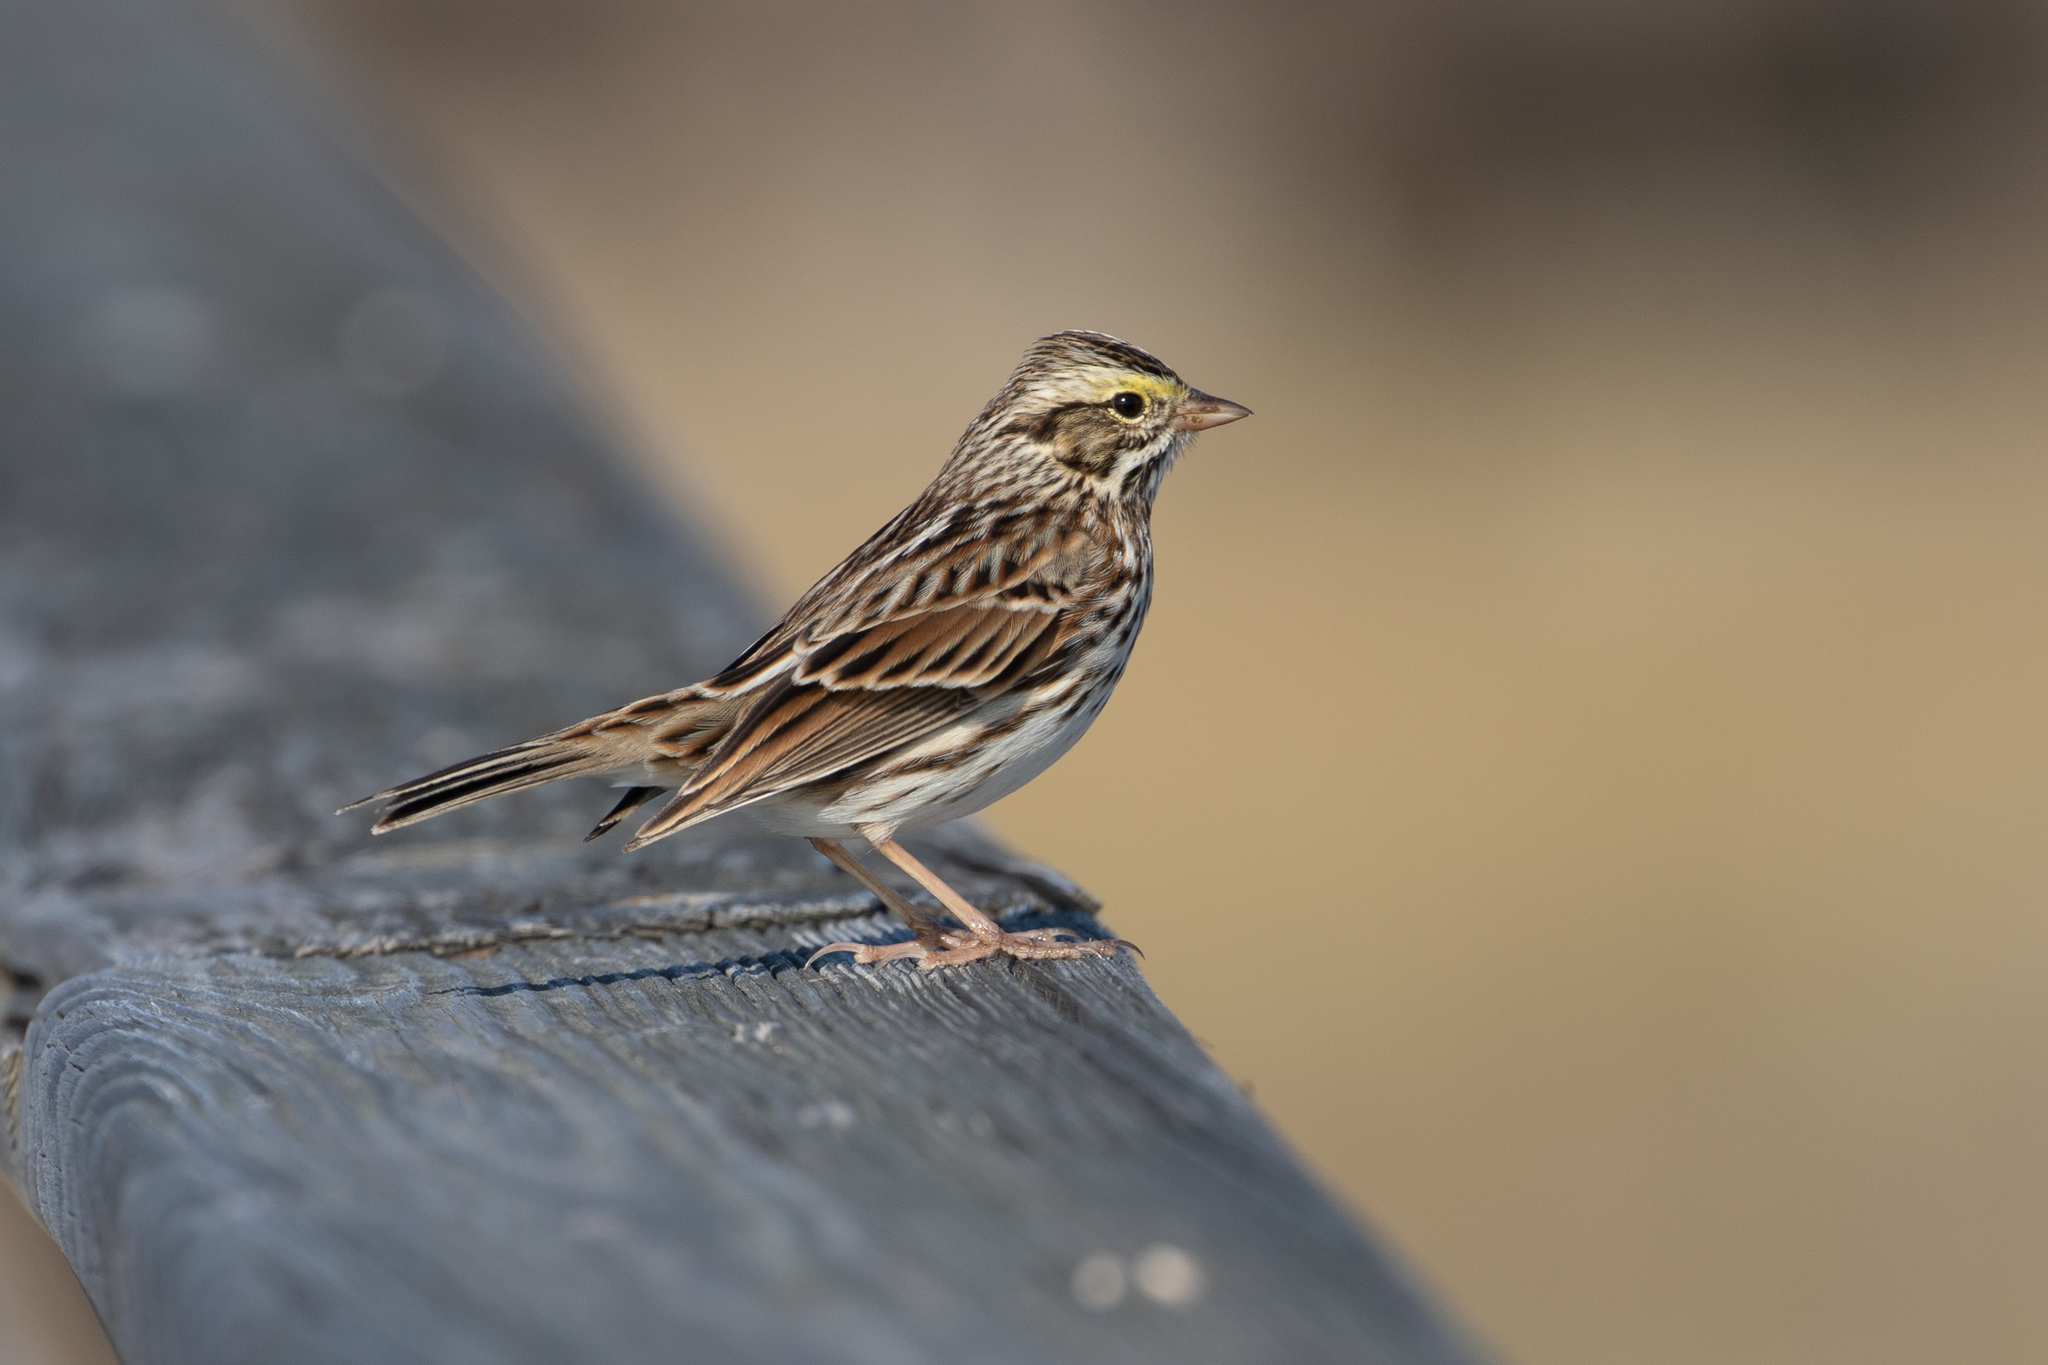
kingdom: Animalia
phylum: Chordata
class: Aves
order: Passeriformes
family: Passerellidae
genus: Passerculus
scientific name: Passerculus sandwichensis
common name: Savannah sparrow
